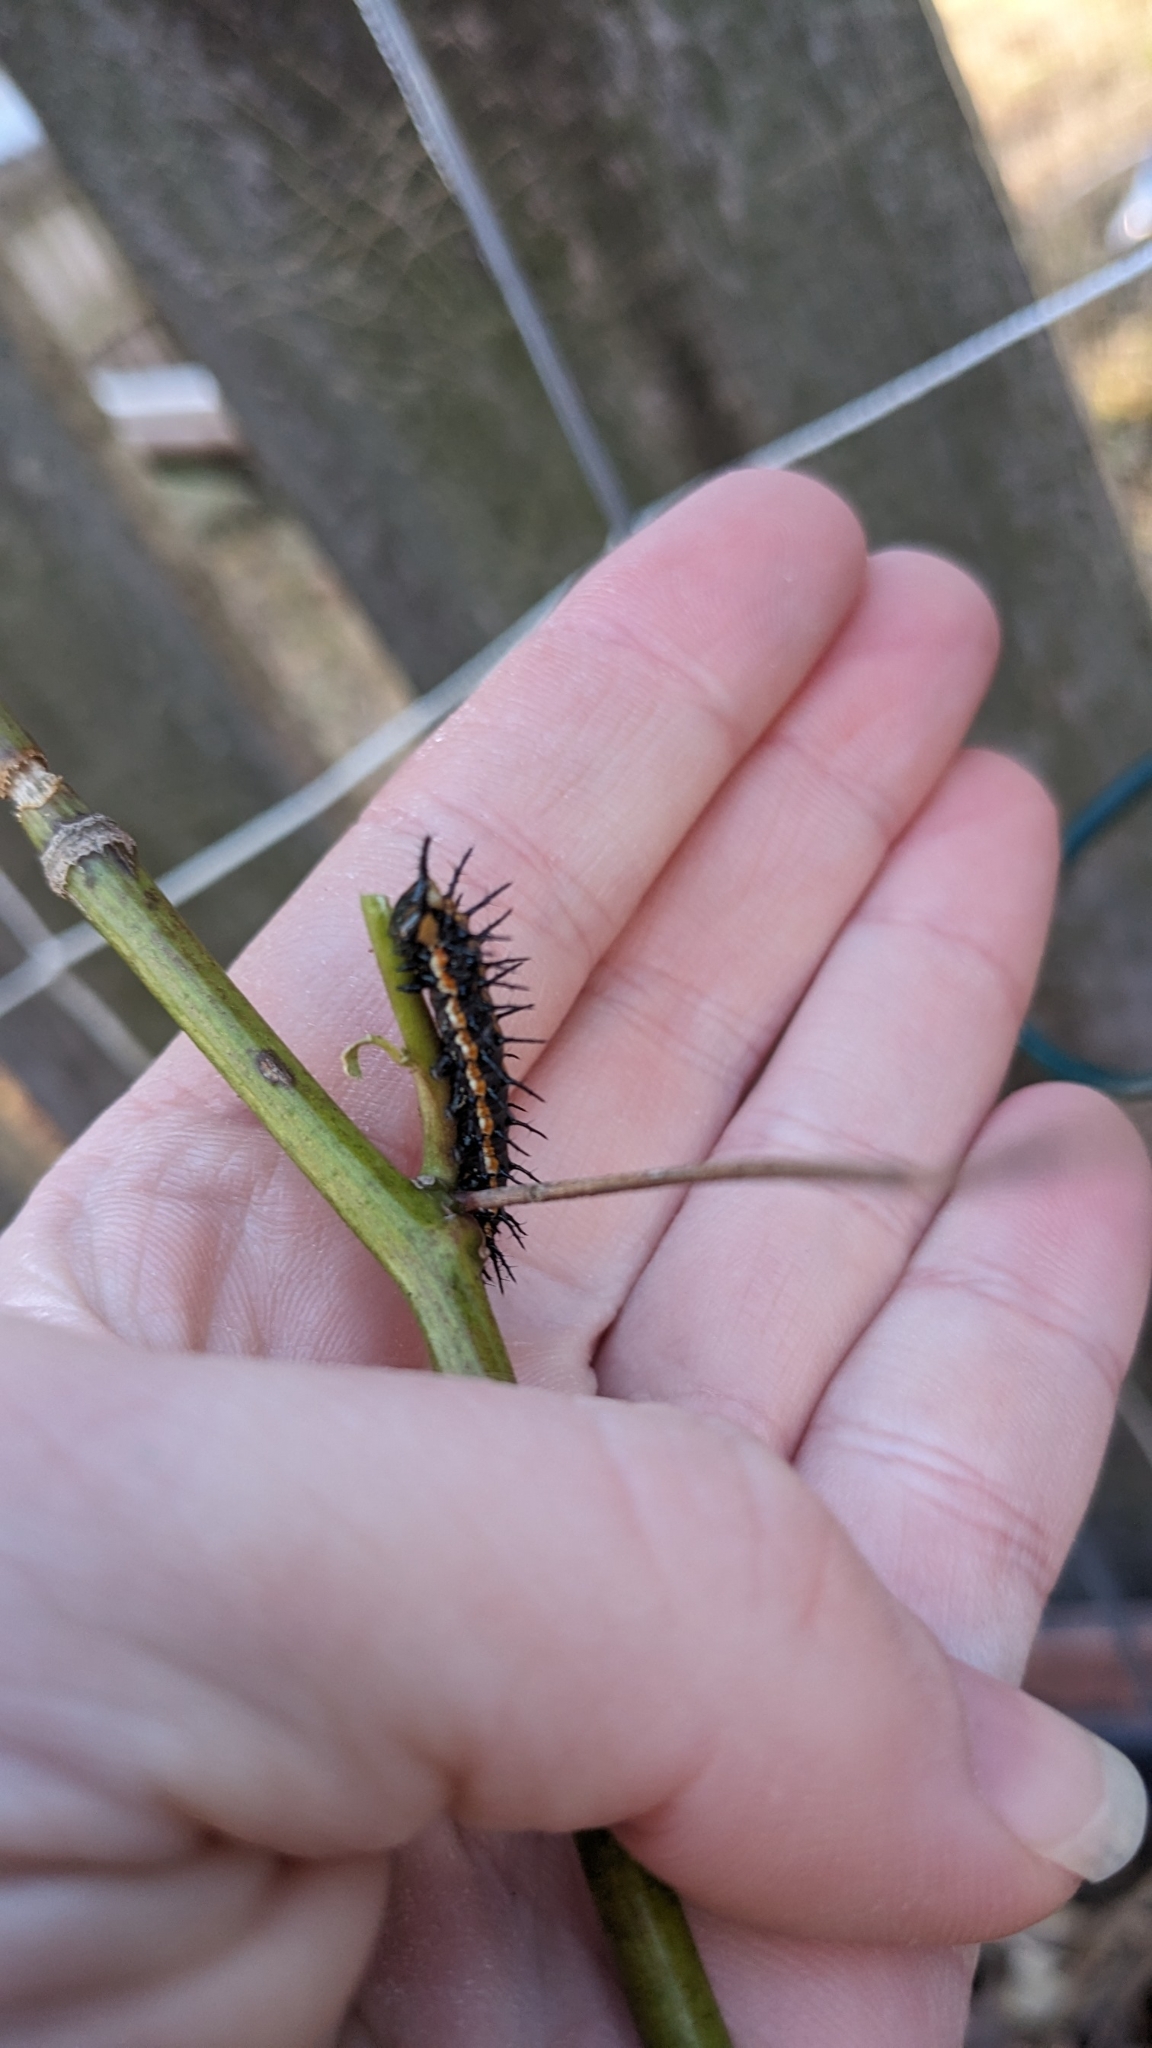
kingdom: Animalia
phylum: Arthropoda
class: Insecta
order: Lepidoptera
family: Nymphalidae
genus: Dione
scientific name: Dione vanillae
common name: Gulf fritillary
